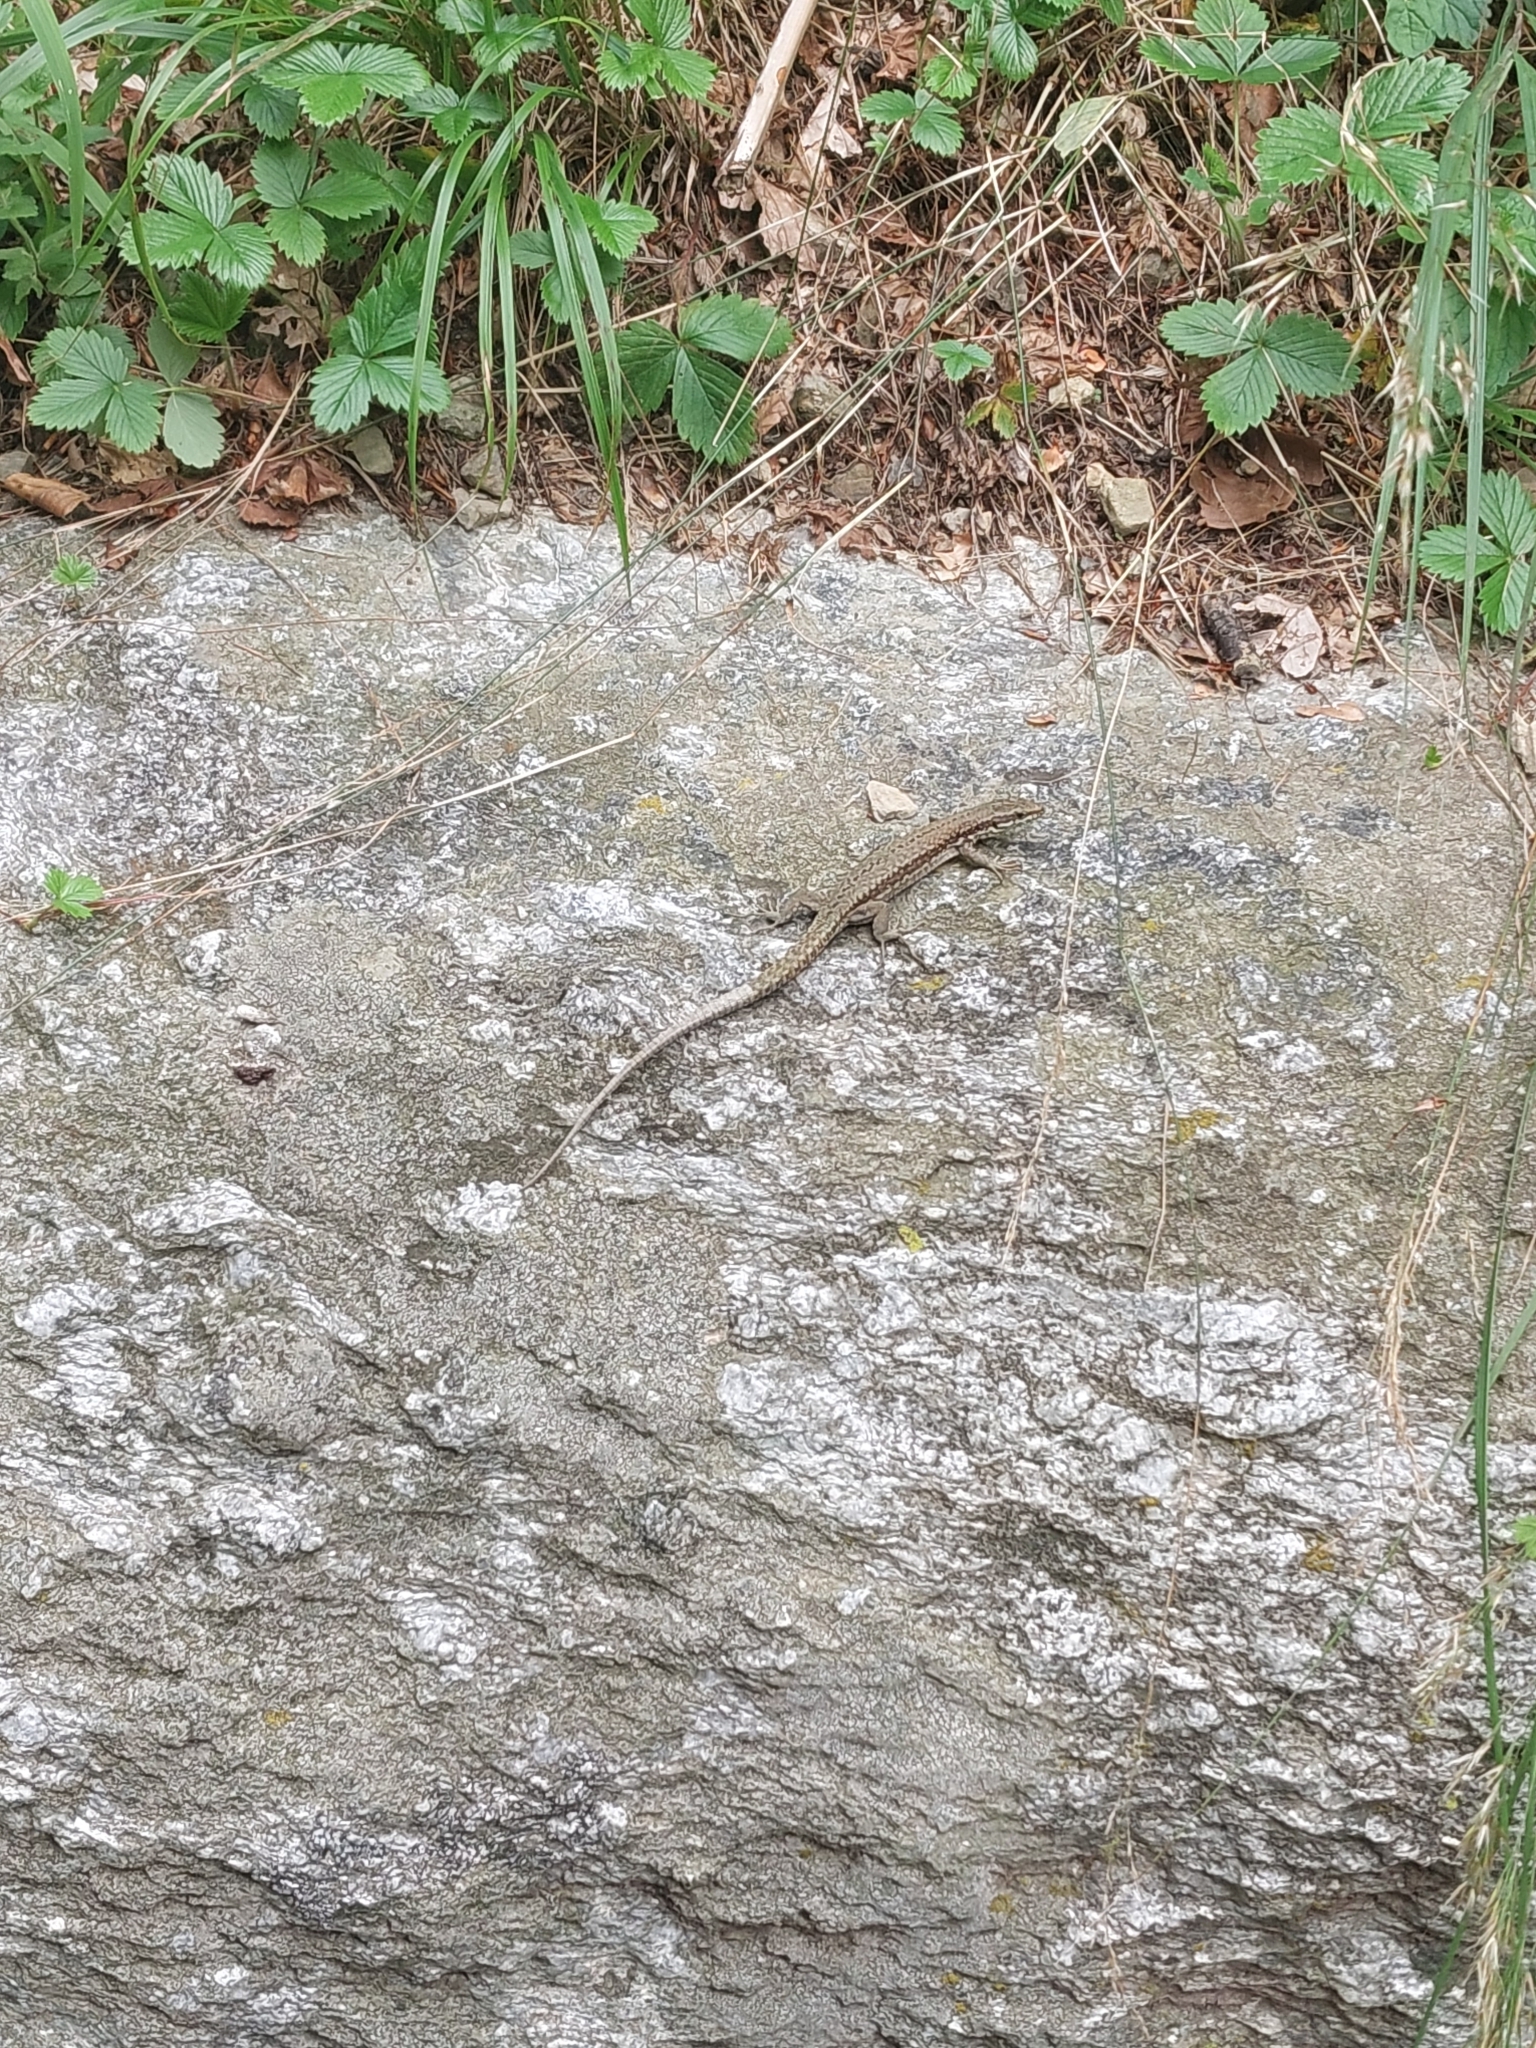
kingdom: Animalia
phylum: Chordata
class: Squamata
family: Lacertidae
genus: Podarcis
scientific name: Podarcis muralis
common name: Common wall lizard
